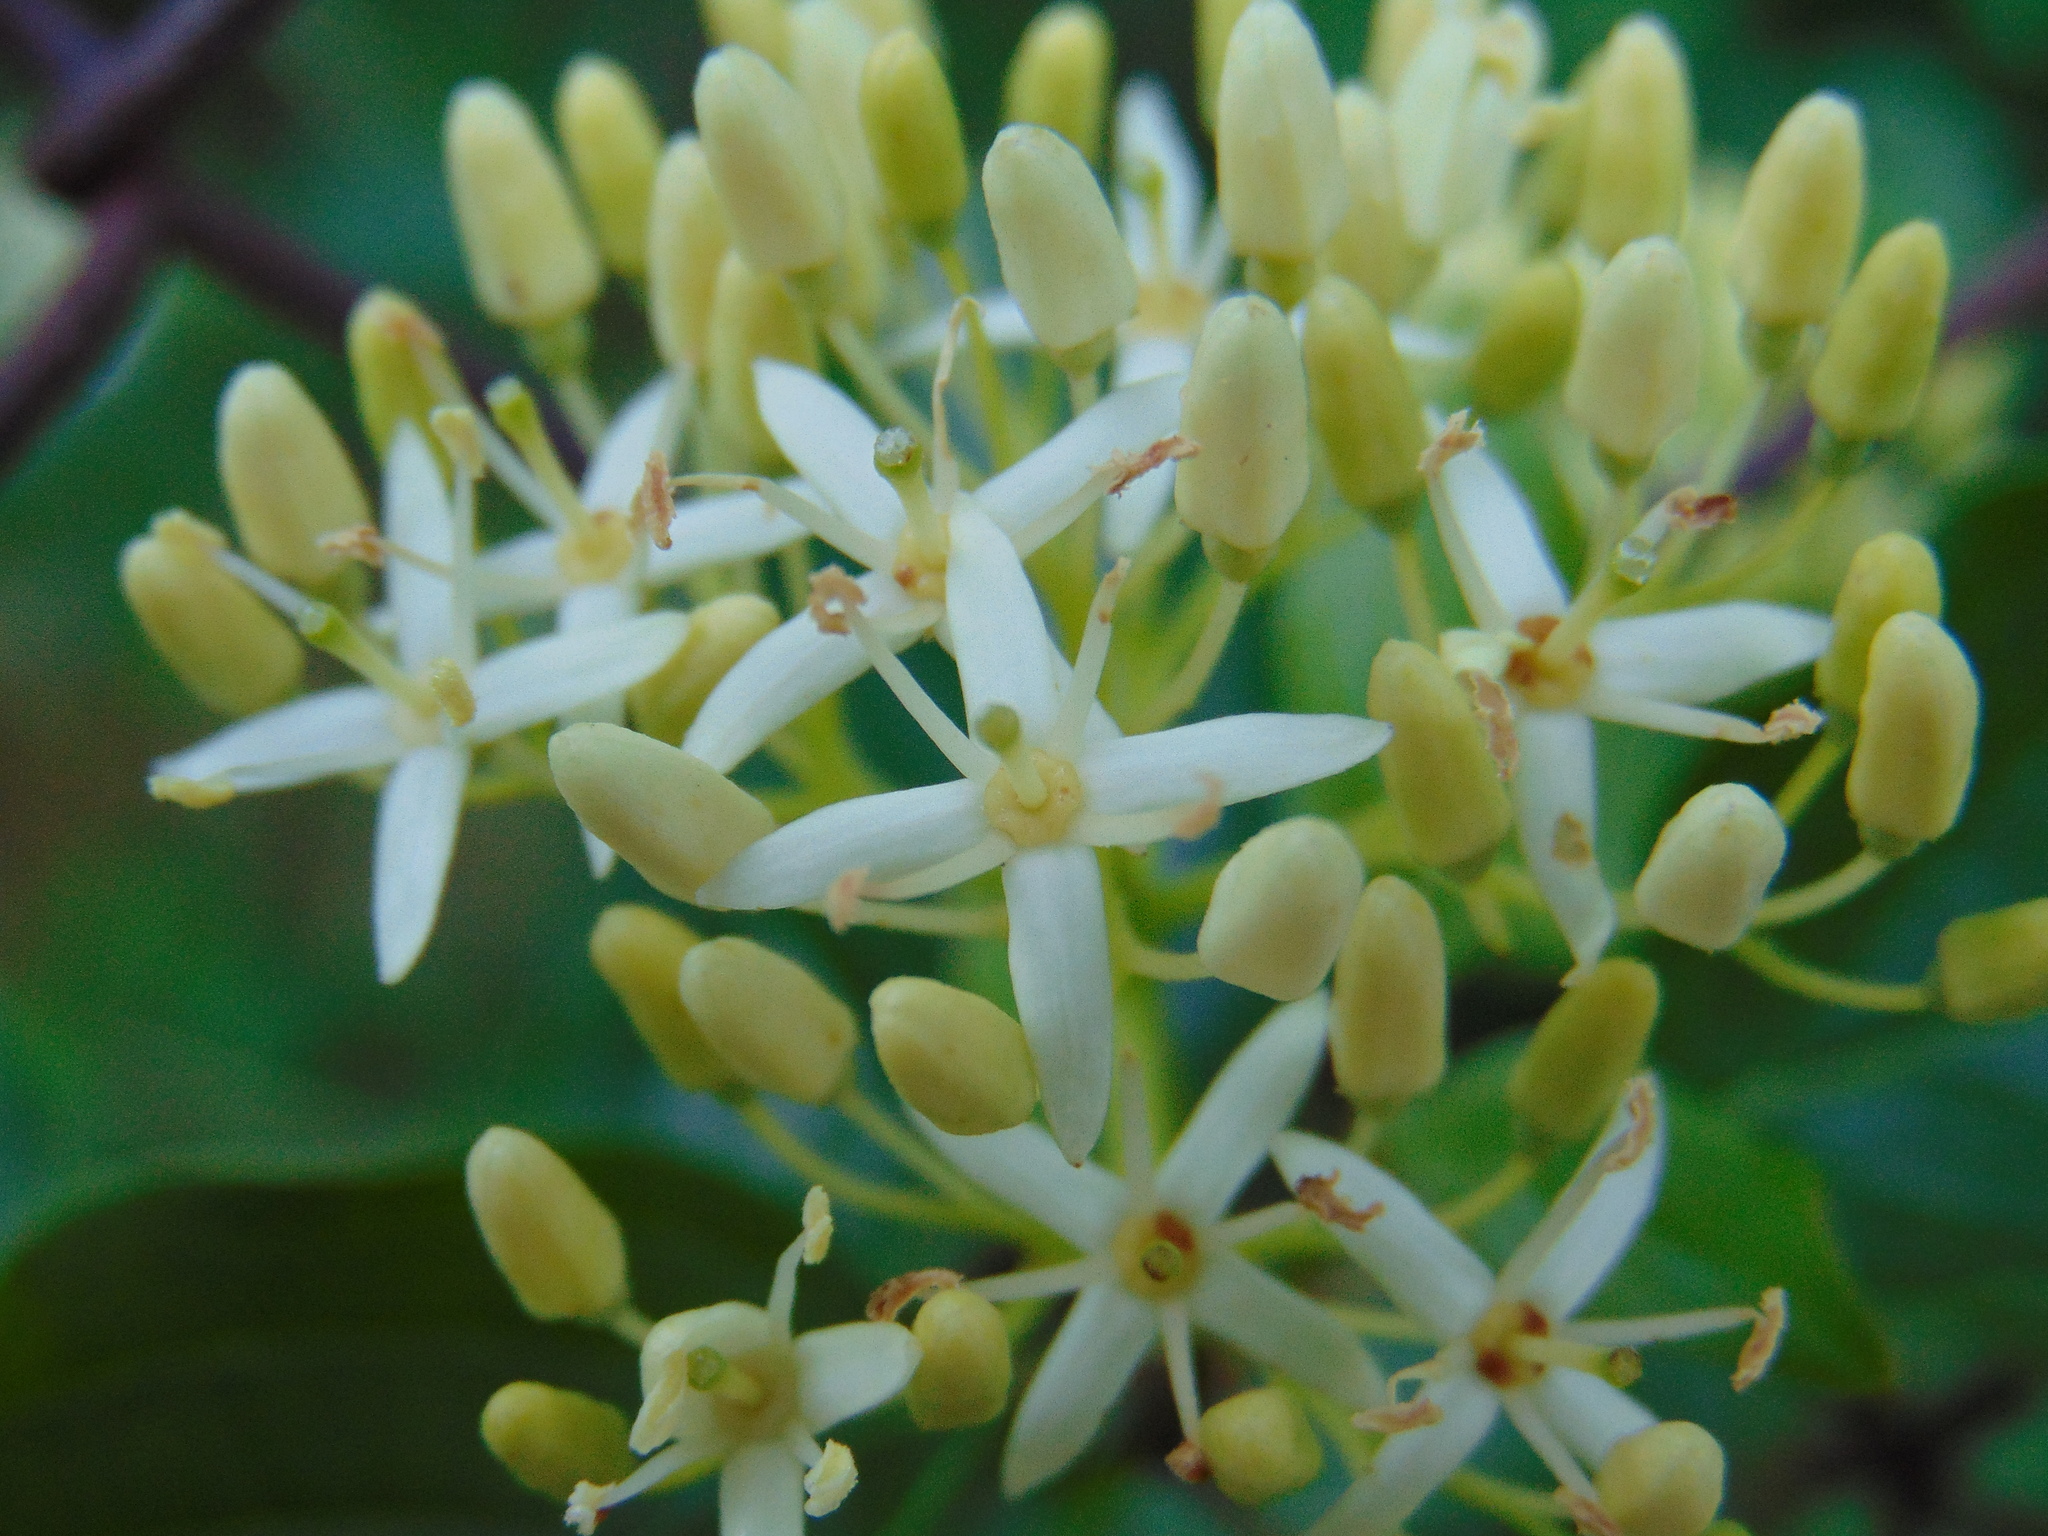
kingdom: Plantae
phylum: Tracheophyta
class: Magnoliopsida
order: Cornales
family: Cornaceae
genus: Cornus
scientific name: Cornus sanguinea
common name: Dogwood
